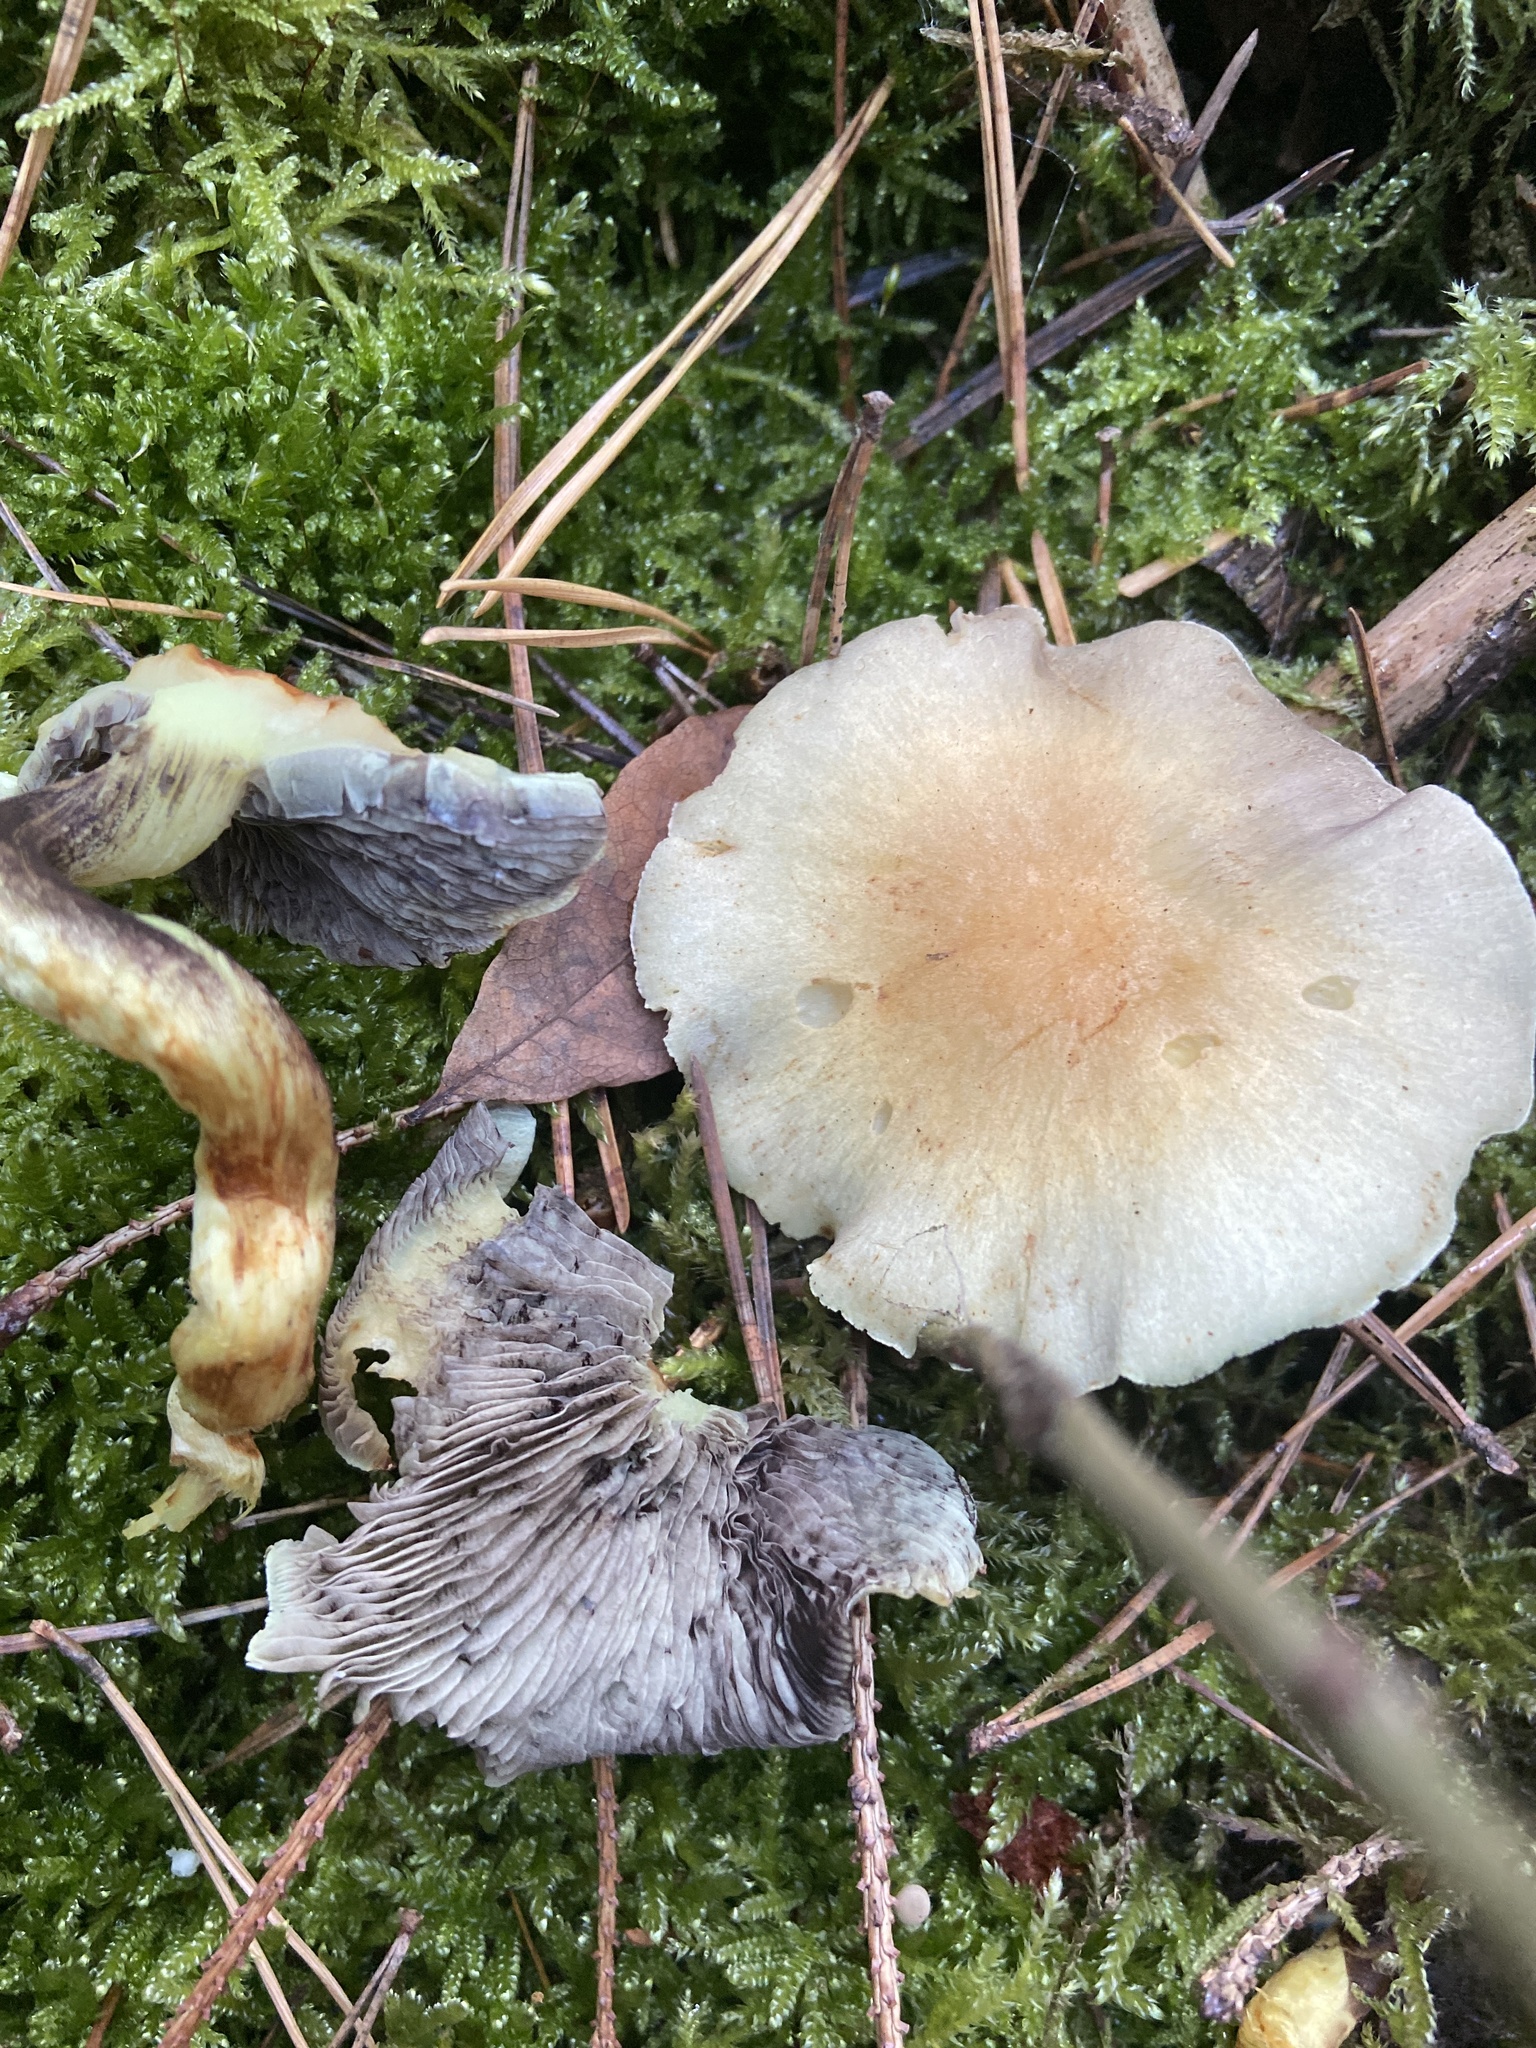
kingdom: Fungi
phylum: Basidiomycota
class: Agaricomycetes
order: Agaricales
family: Strophariaceae
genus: Hypholoma
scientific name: Hypholoma capnoides
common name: Conifer tuft
